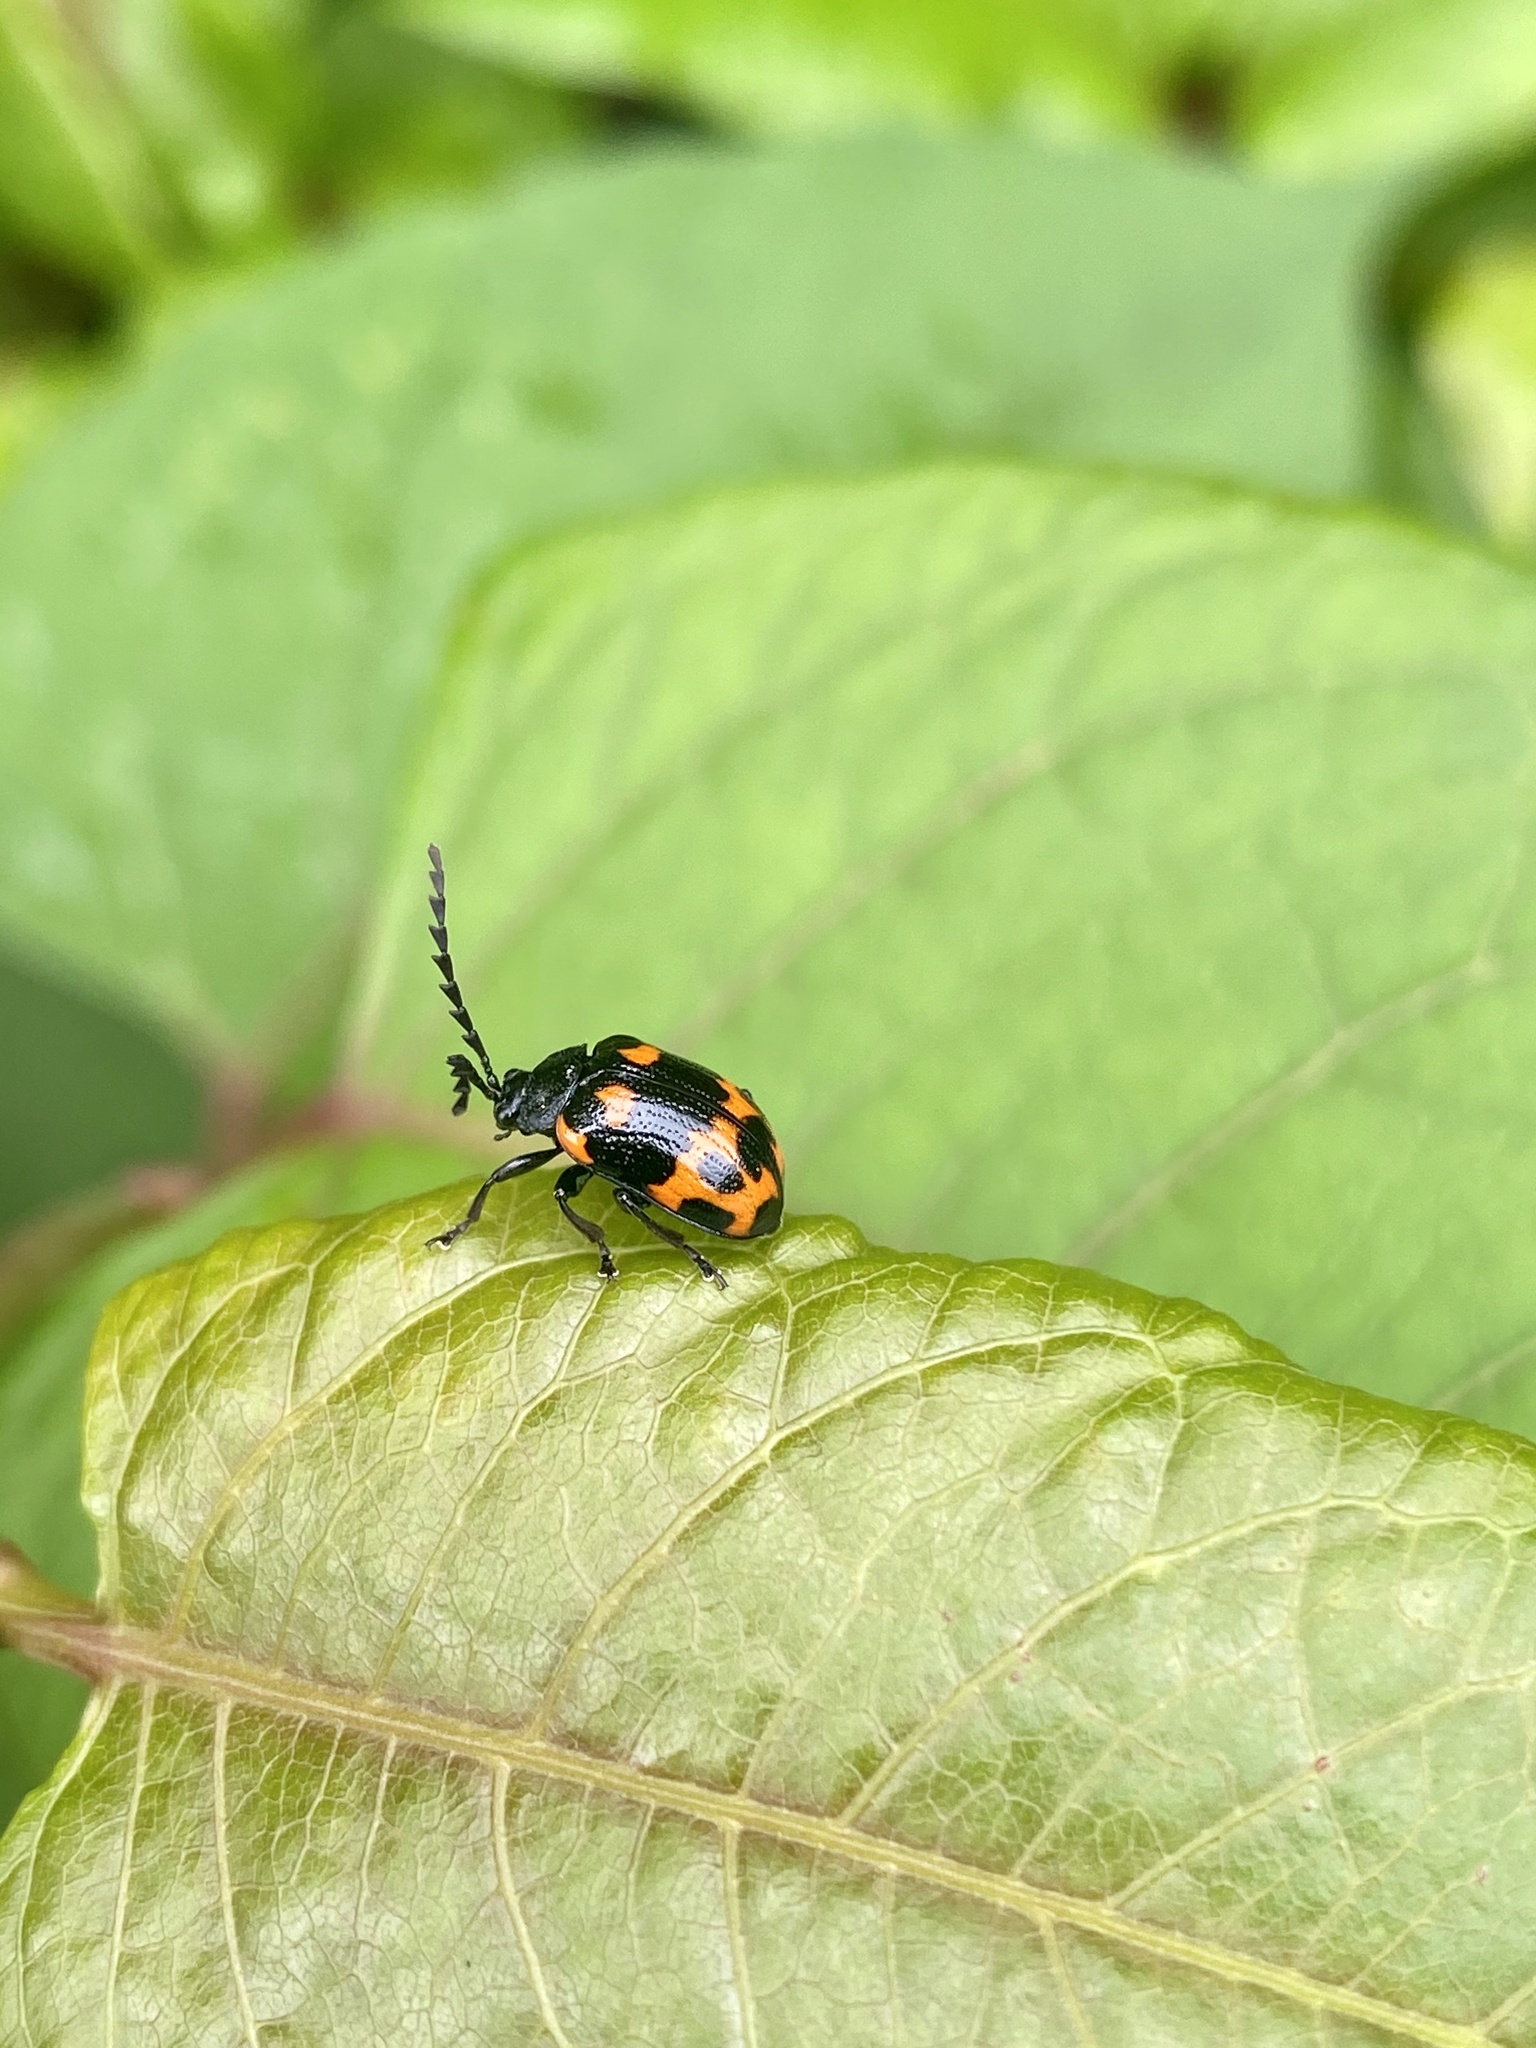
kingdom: Animalia
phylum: Arthropoda
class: Insecta
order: Coleoptera
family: Chrysomelidae
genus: Gallerucida
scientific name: Gallerucida bifasciata
